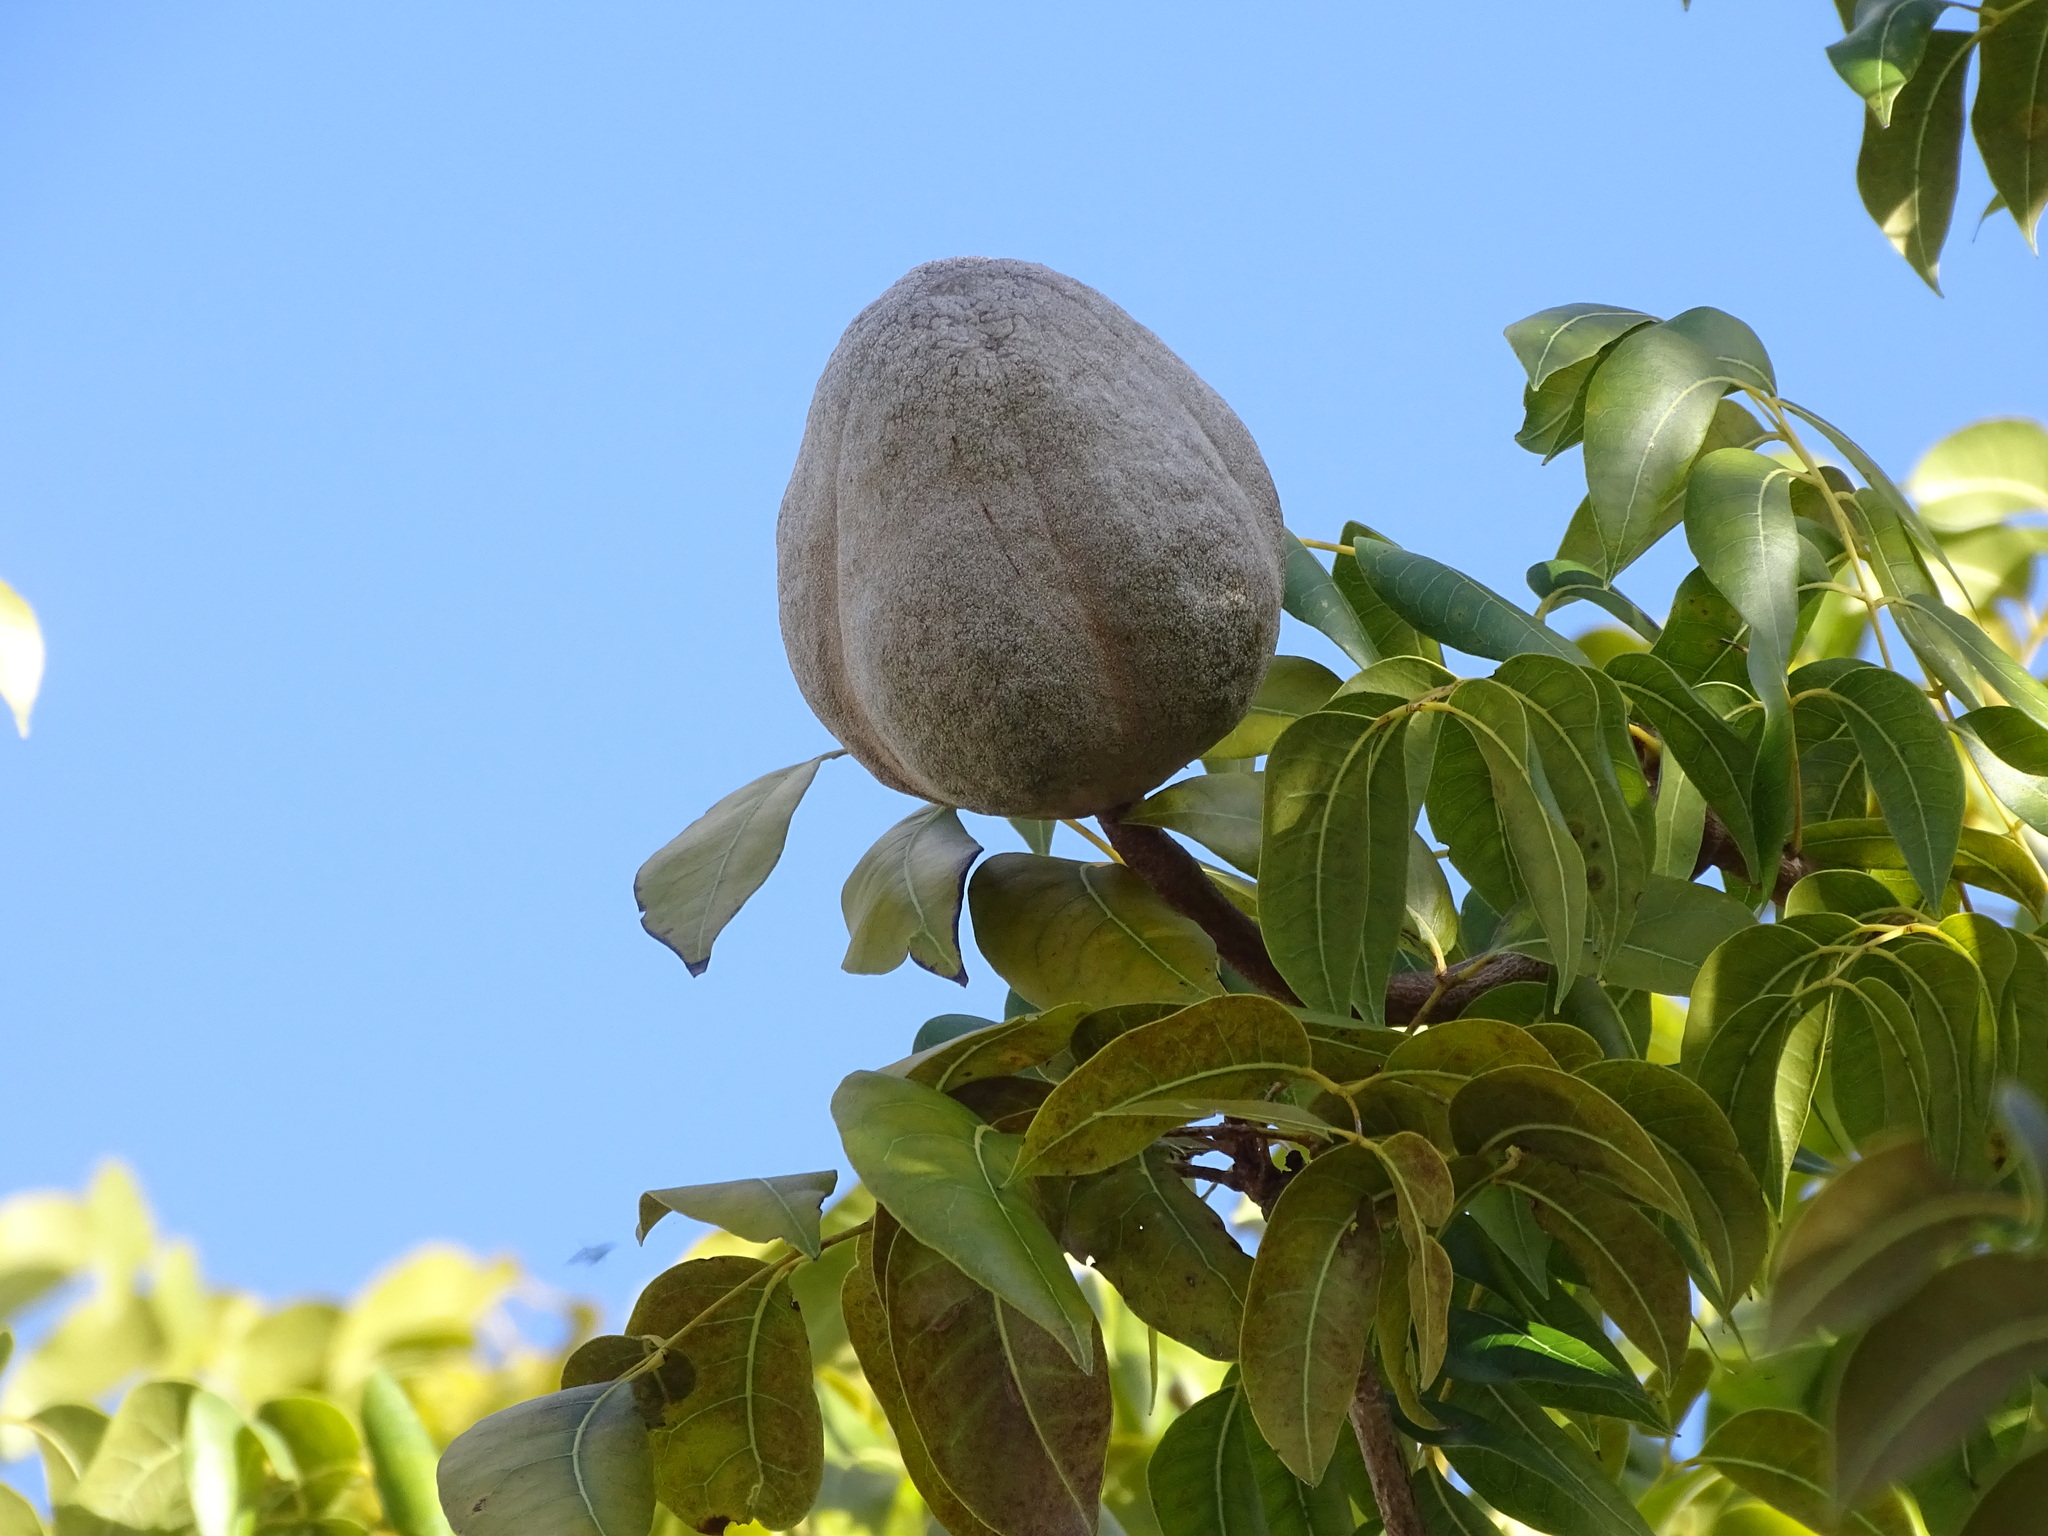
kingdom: Plantae
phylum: Tracheophyta
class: Magnoliopsida
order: Sapindales
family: Meliaceae
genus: Swietenia
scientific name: Swietenia mahagoni
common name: West indian mahogany
